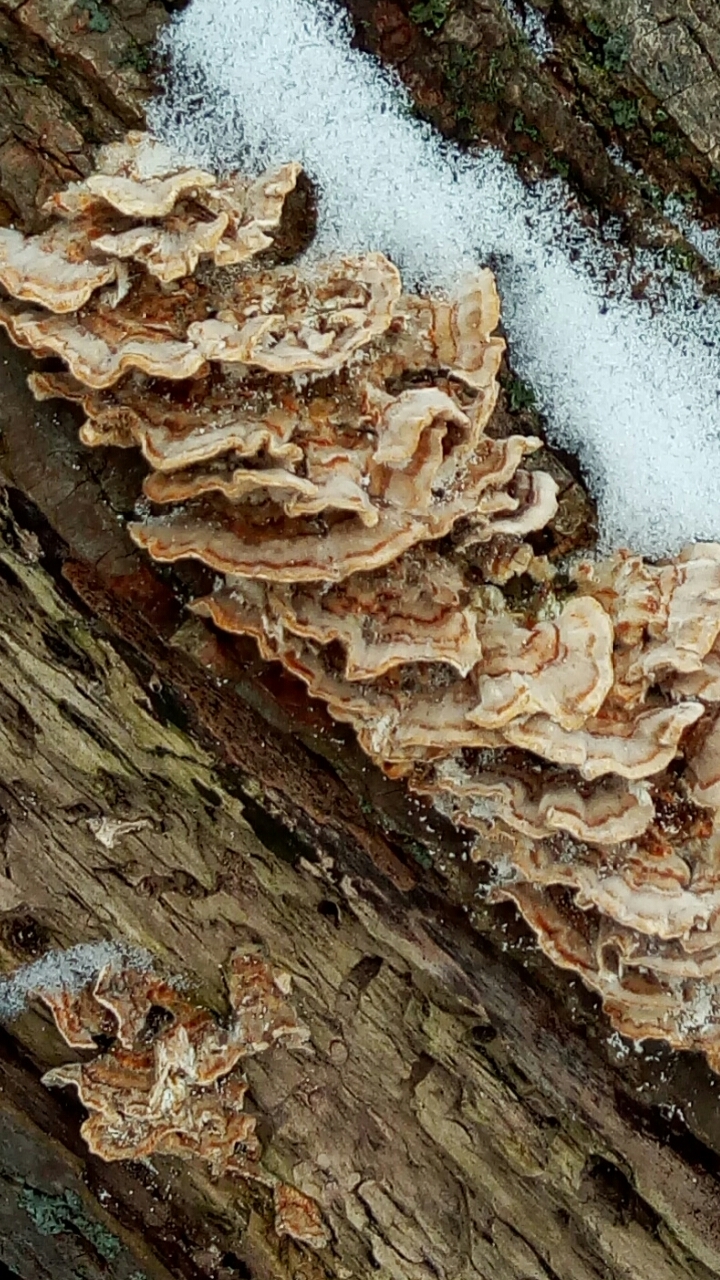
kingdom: Fungi
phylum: Basidiomycota
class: Agaricomycetes
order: Polyporales
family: Polyporaceae
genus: Trametes
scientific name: Trametes versicolor
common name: Turkeytail
